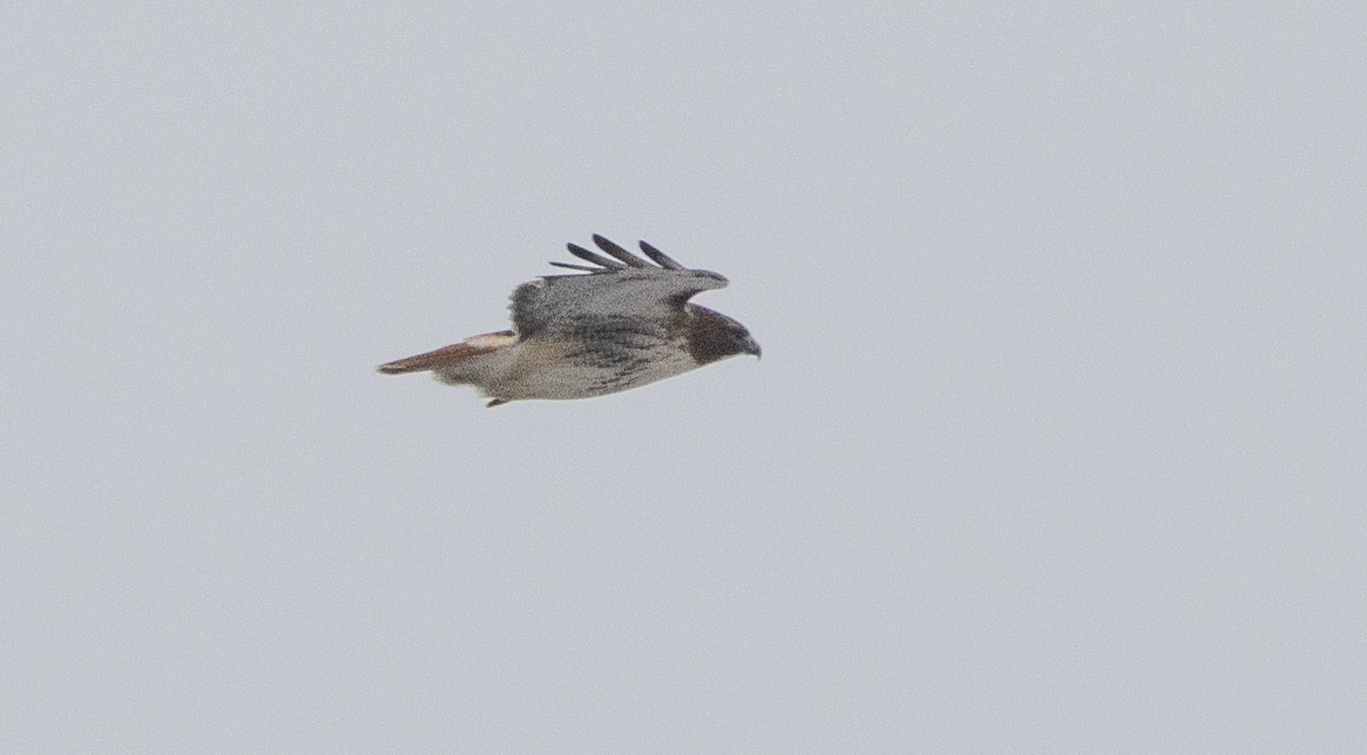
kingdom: Animalia
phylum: Chordata
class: Aves
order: Accipitriformes
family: Accipitridae
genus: Buteo
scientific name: Buteo jamaicensis
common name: Red-tailed hawk
